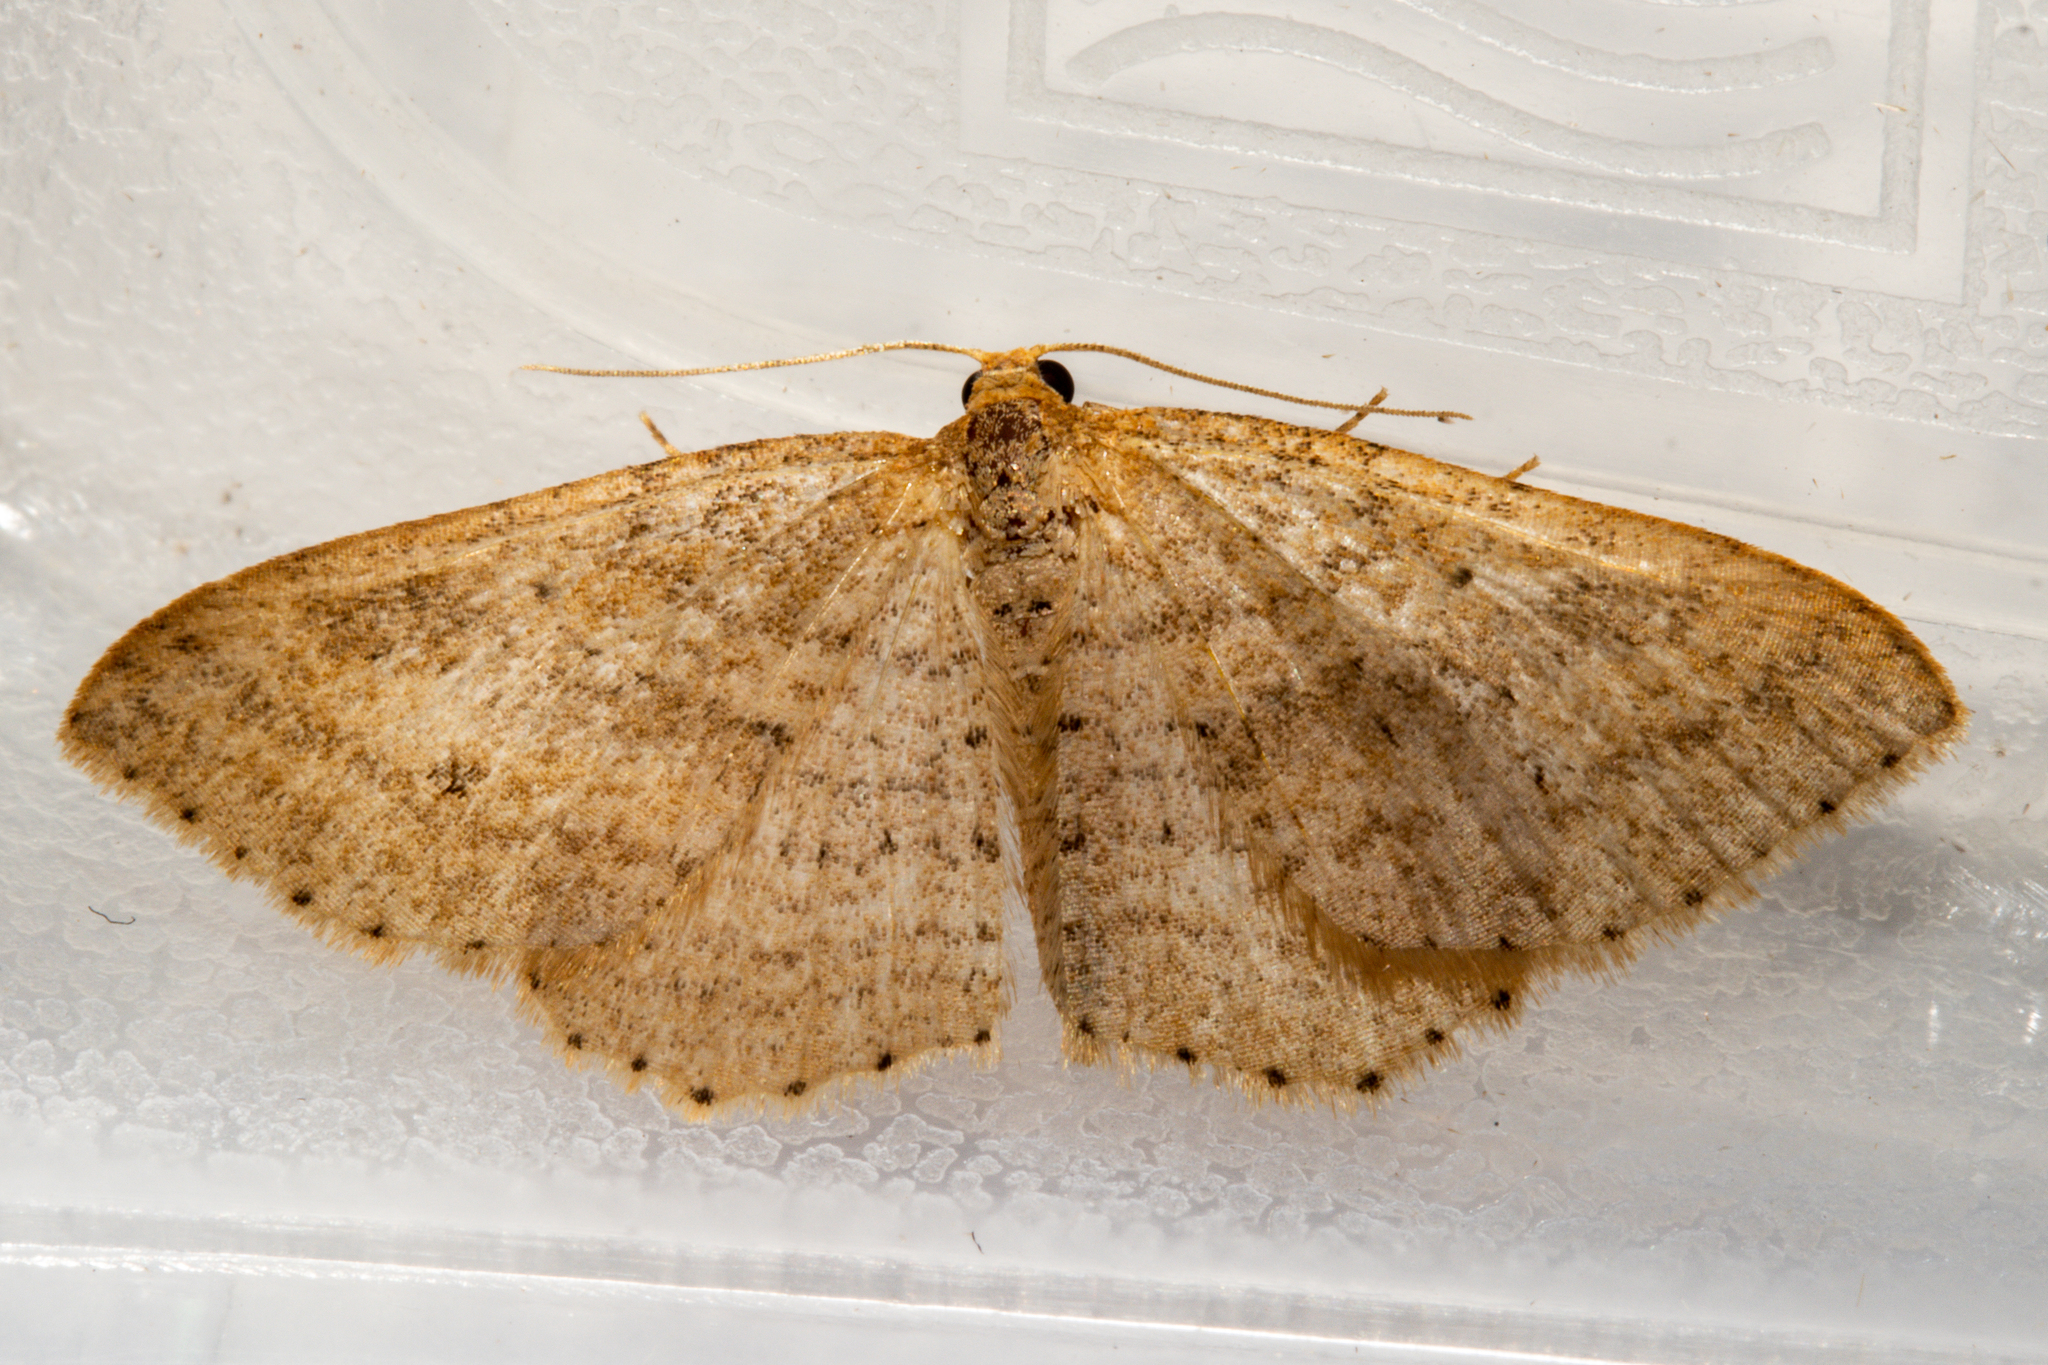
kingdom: Animalia
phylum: Arthropoda
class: Insecta
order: Lepidoptera
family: Geometridae
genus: Scopula
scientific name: Scopula rubraria
